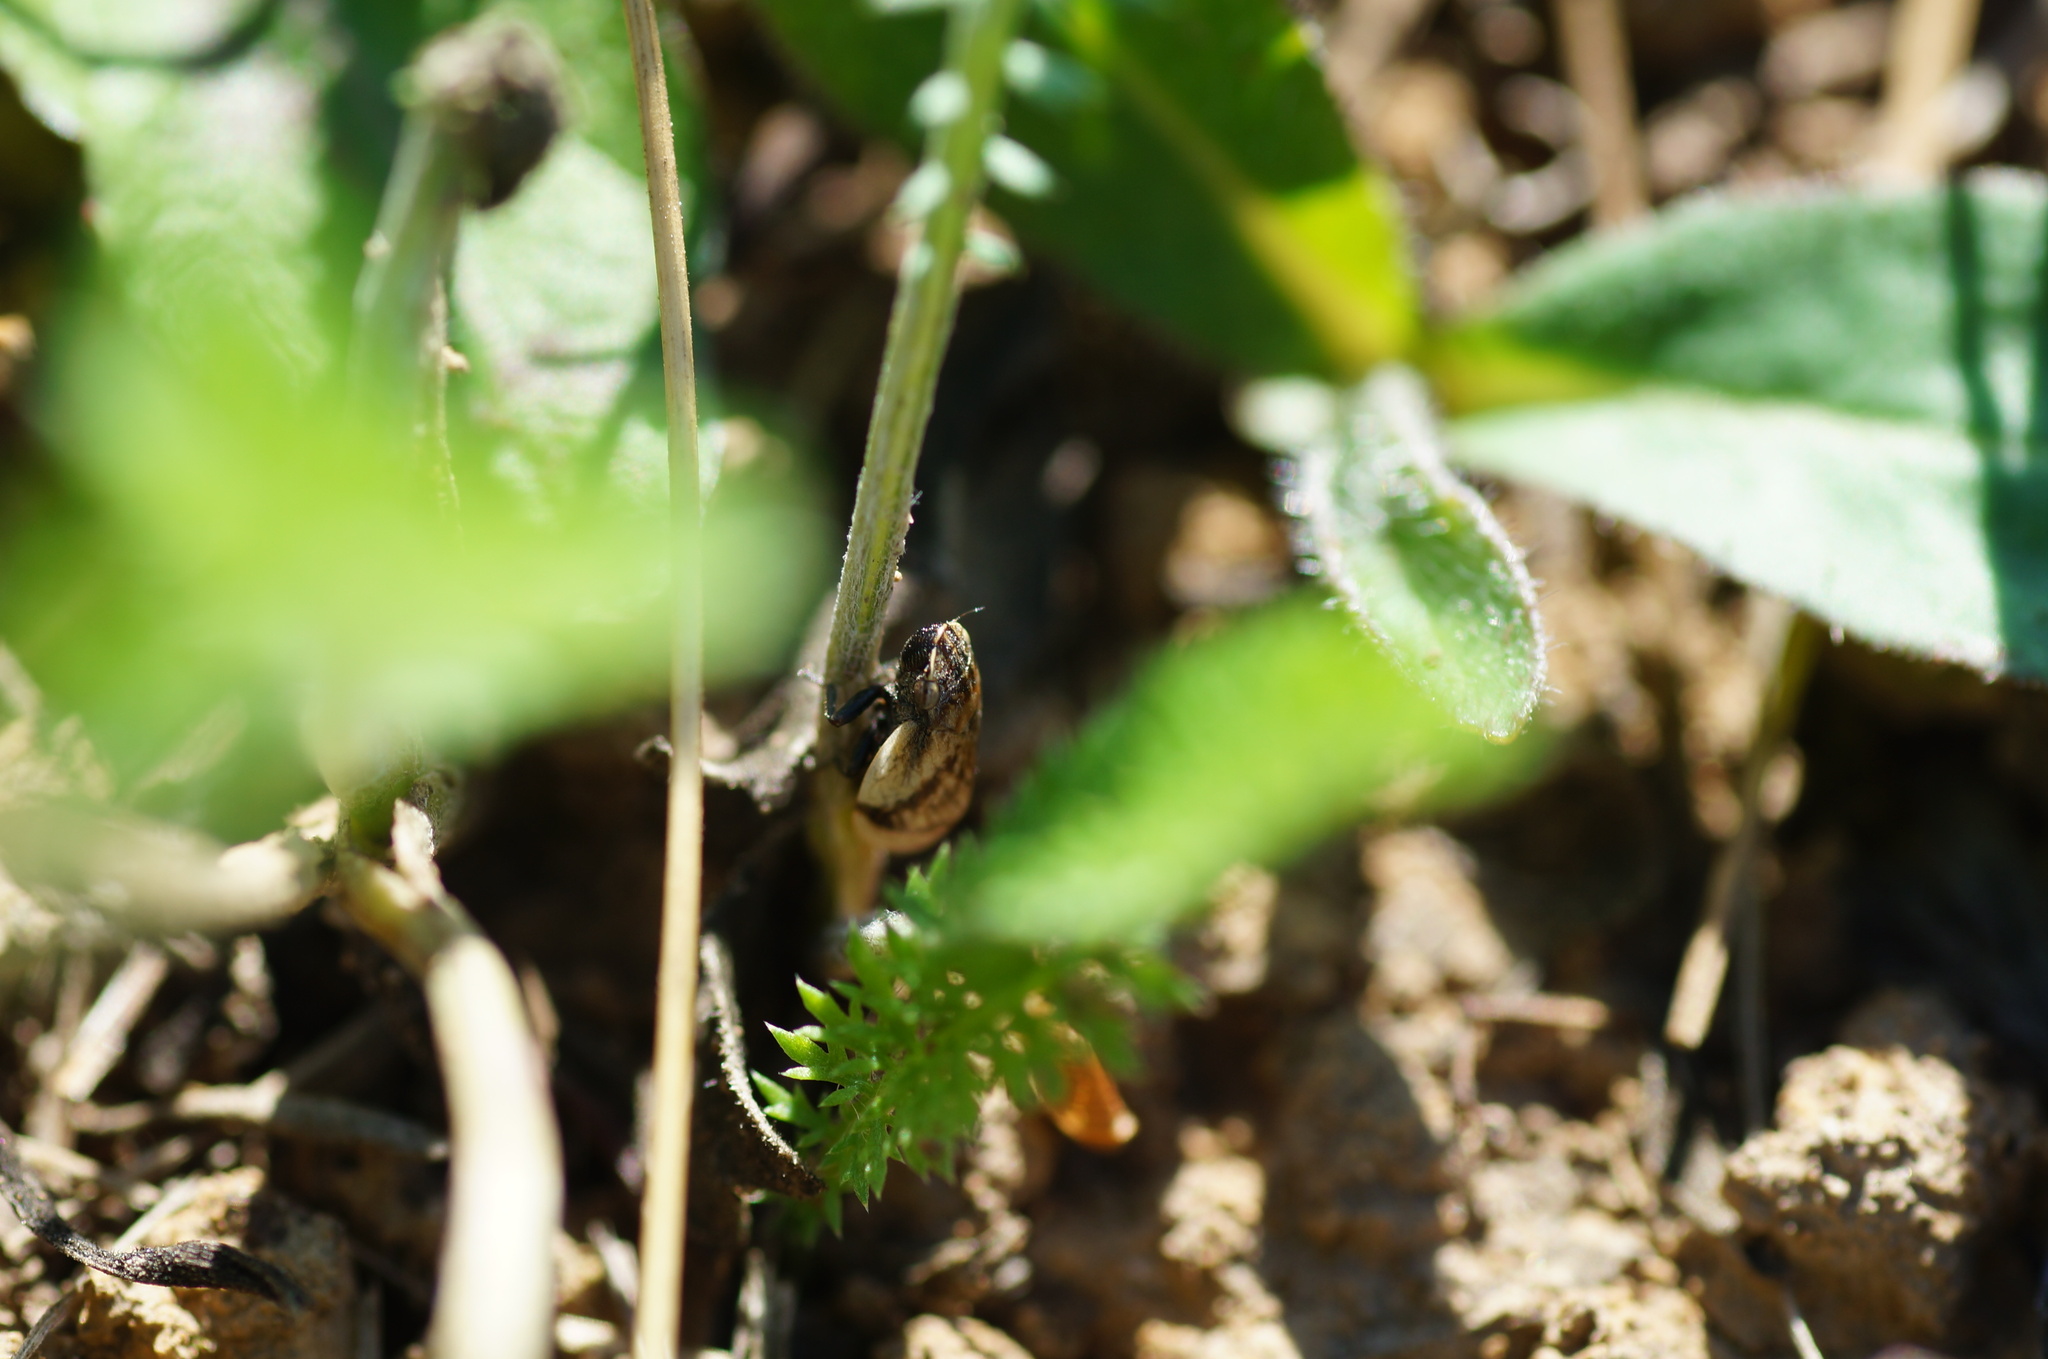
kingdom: Animalia
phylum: Arthropoda
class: Insecta
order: Hemiptera
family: Aphrophoridae
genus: Lepyronia
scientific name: Lepyronia coleoptrata
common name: Leafhopper
